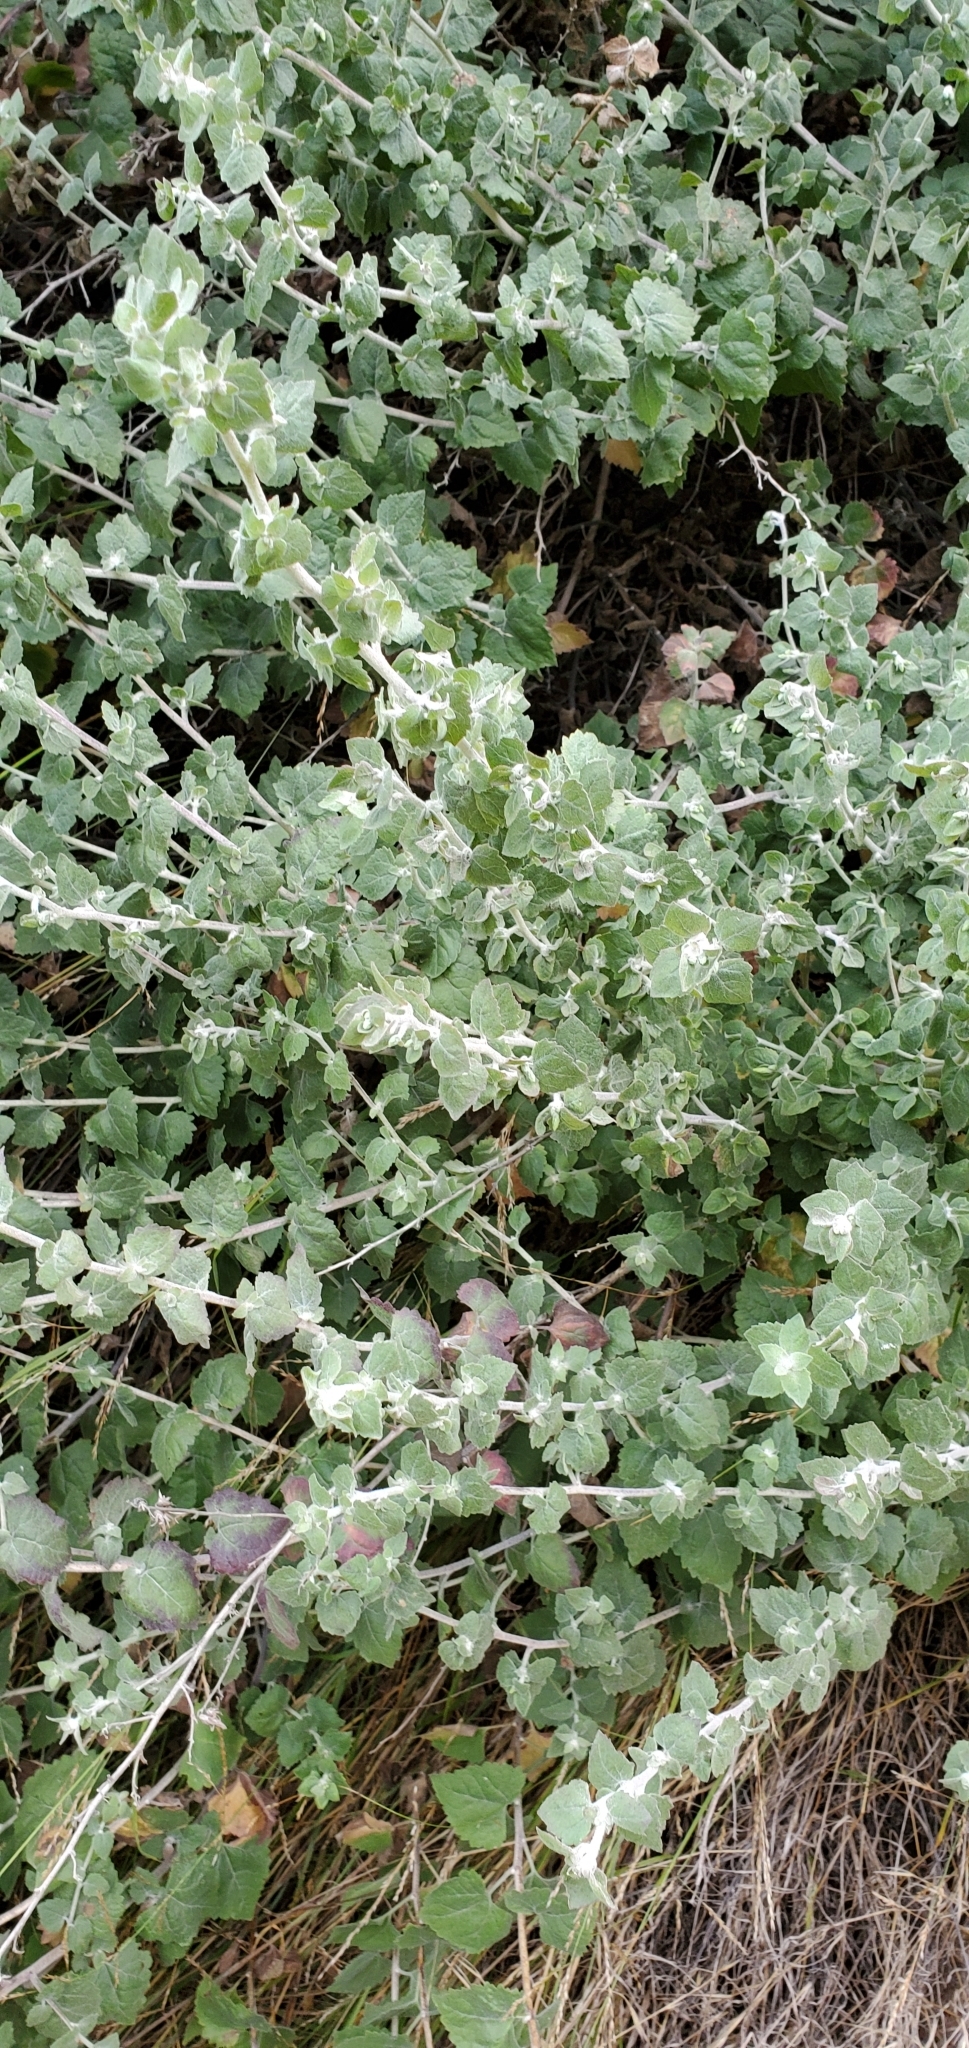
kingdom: Plantae
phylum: Tracheophyta
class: Magnoliopsida
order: Asterales
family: Asteraceae
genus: Brickellia
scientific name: Brickellia californica
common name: California brickellbush
